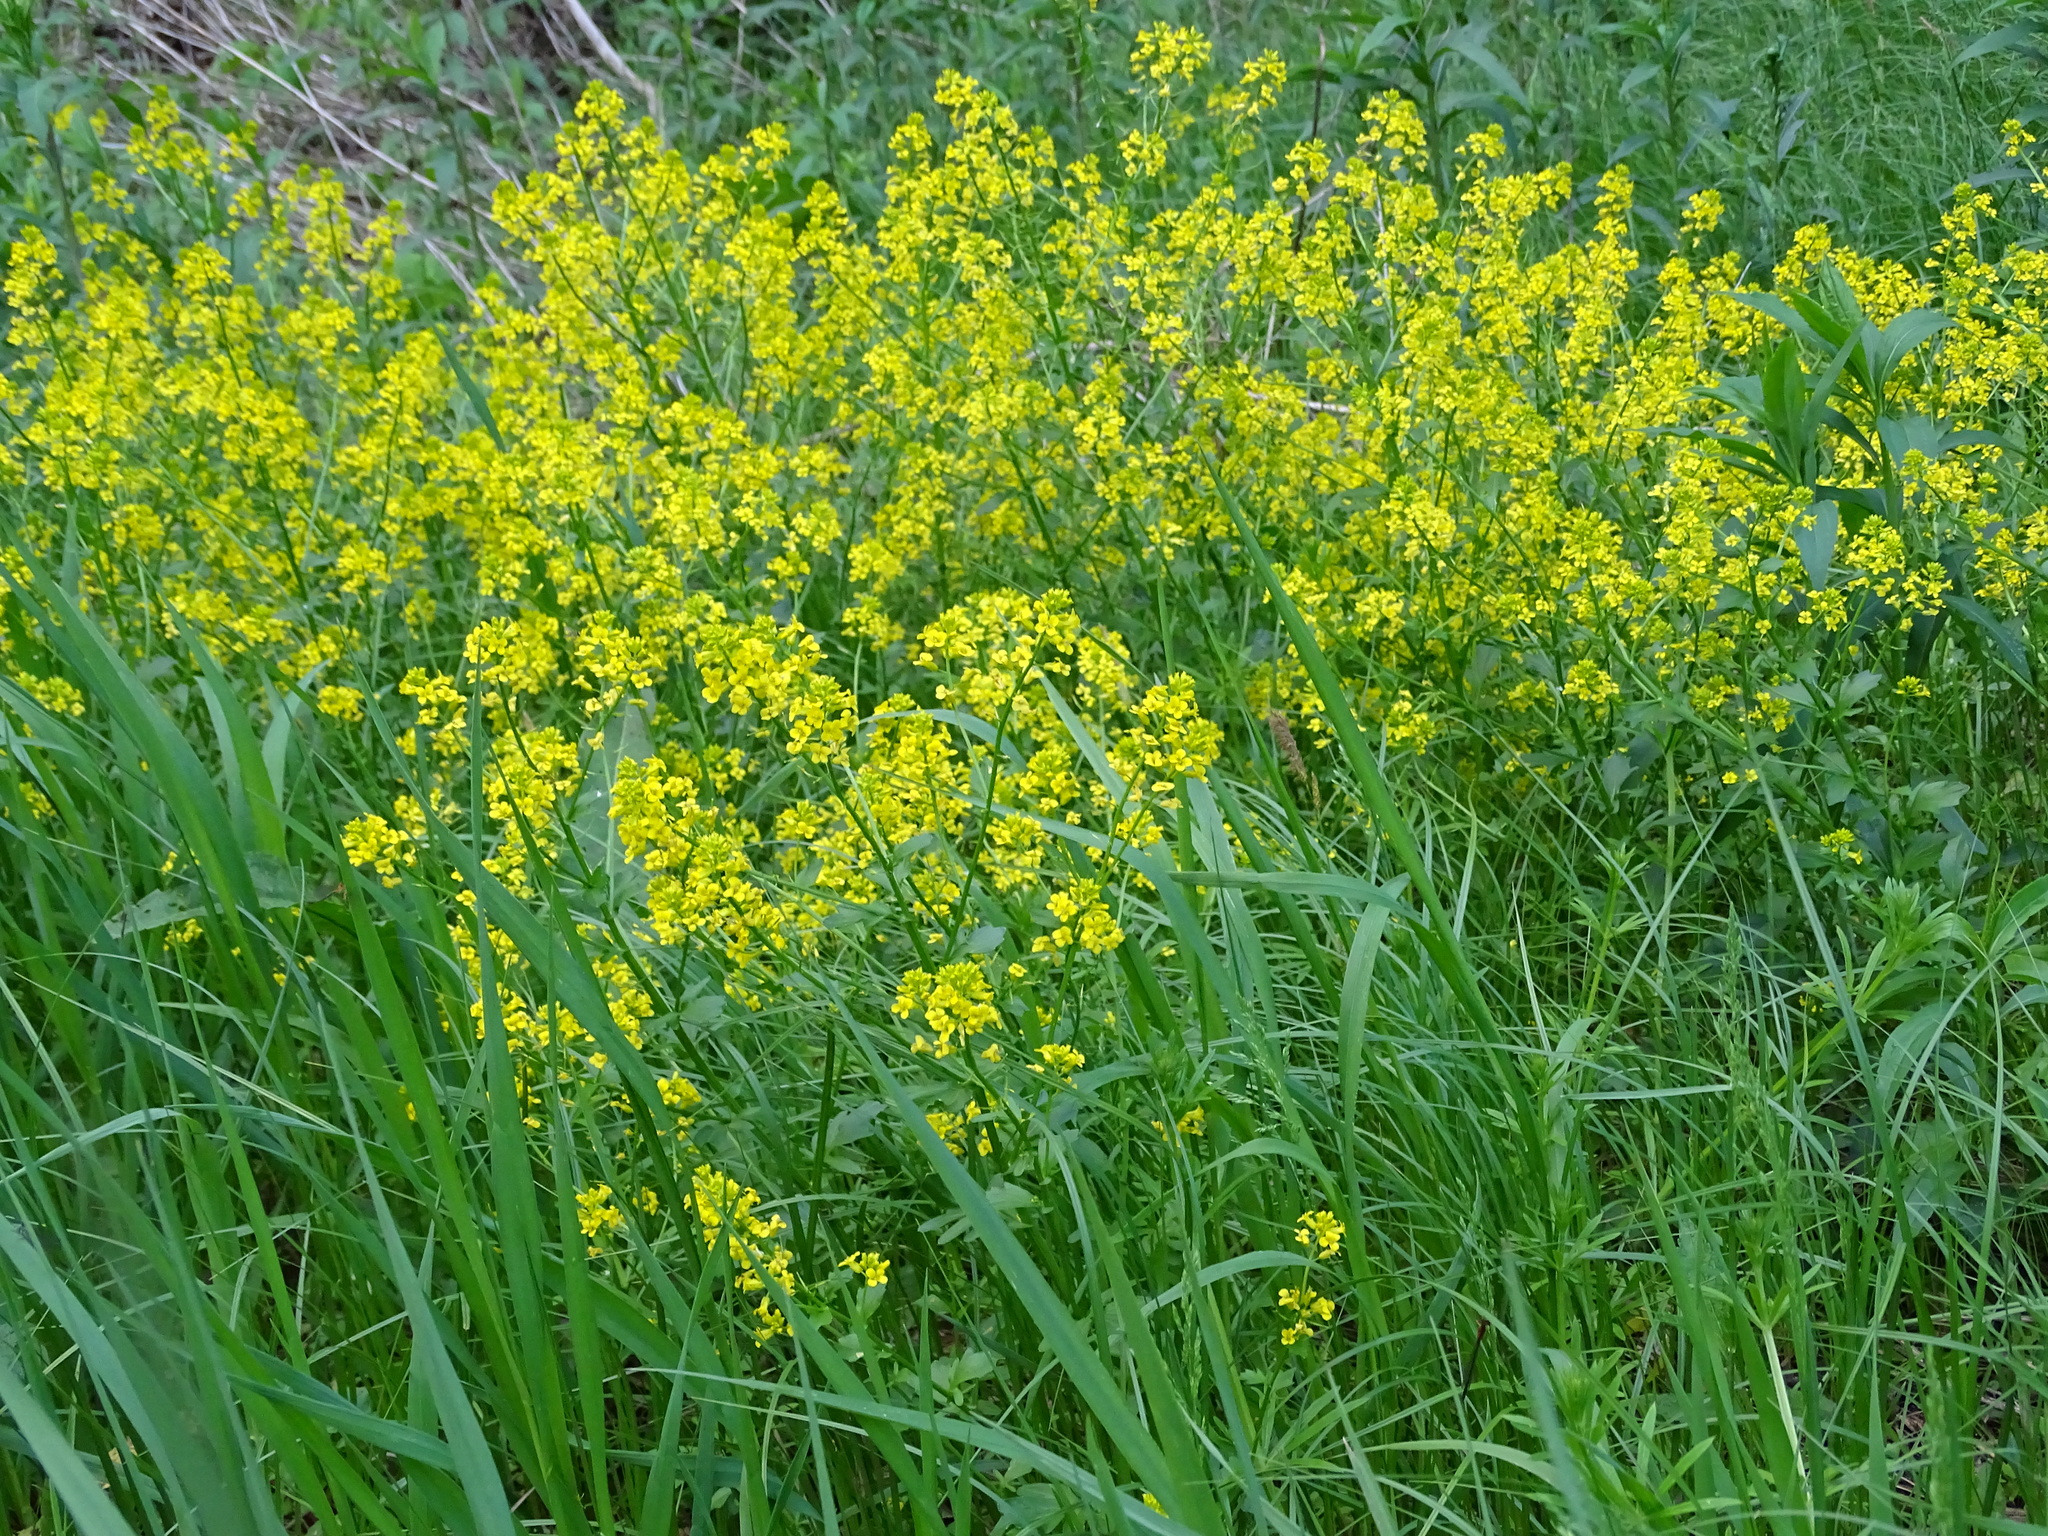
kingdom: Plantae
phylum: Tracheophyta
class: Magnoliopsida
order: Brassicales
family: Brassicaceae
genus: Barbarea
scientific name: Barbarea vulgaris
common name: Cressy-greens
